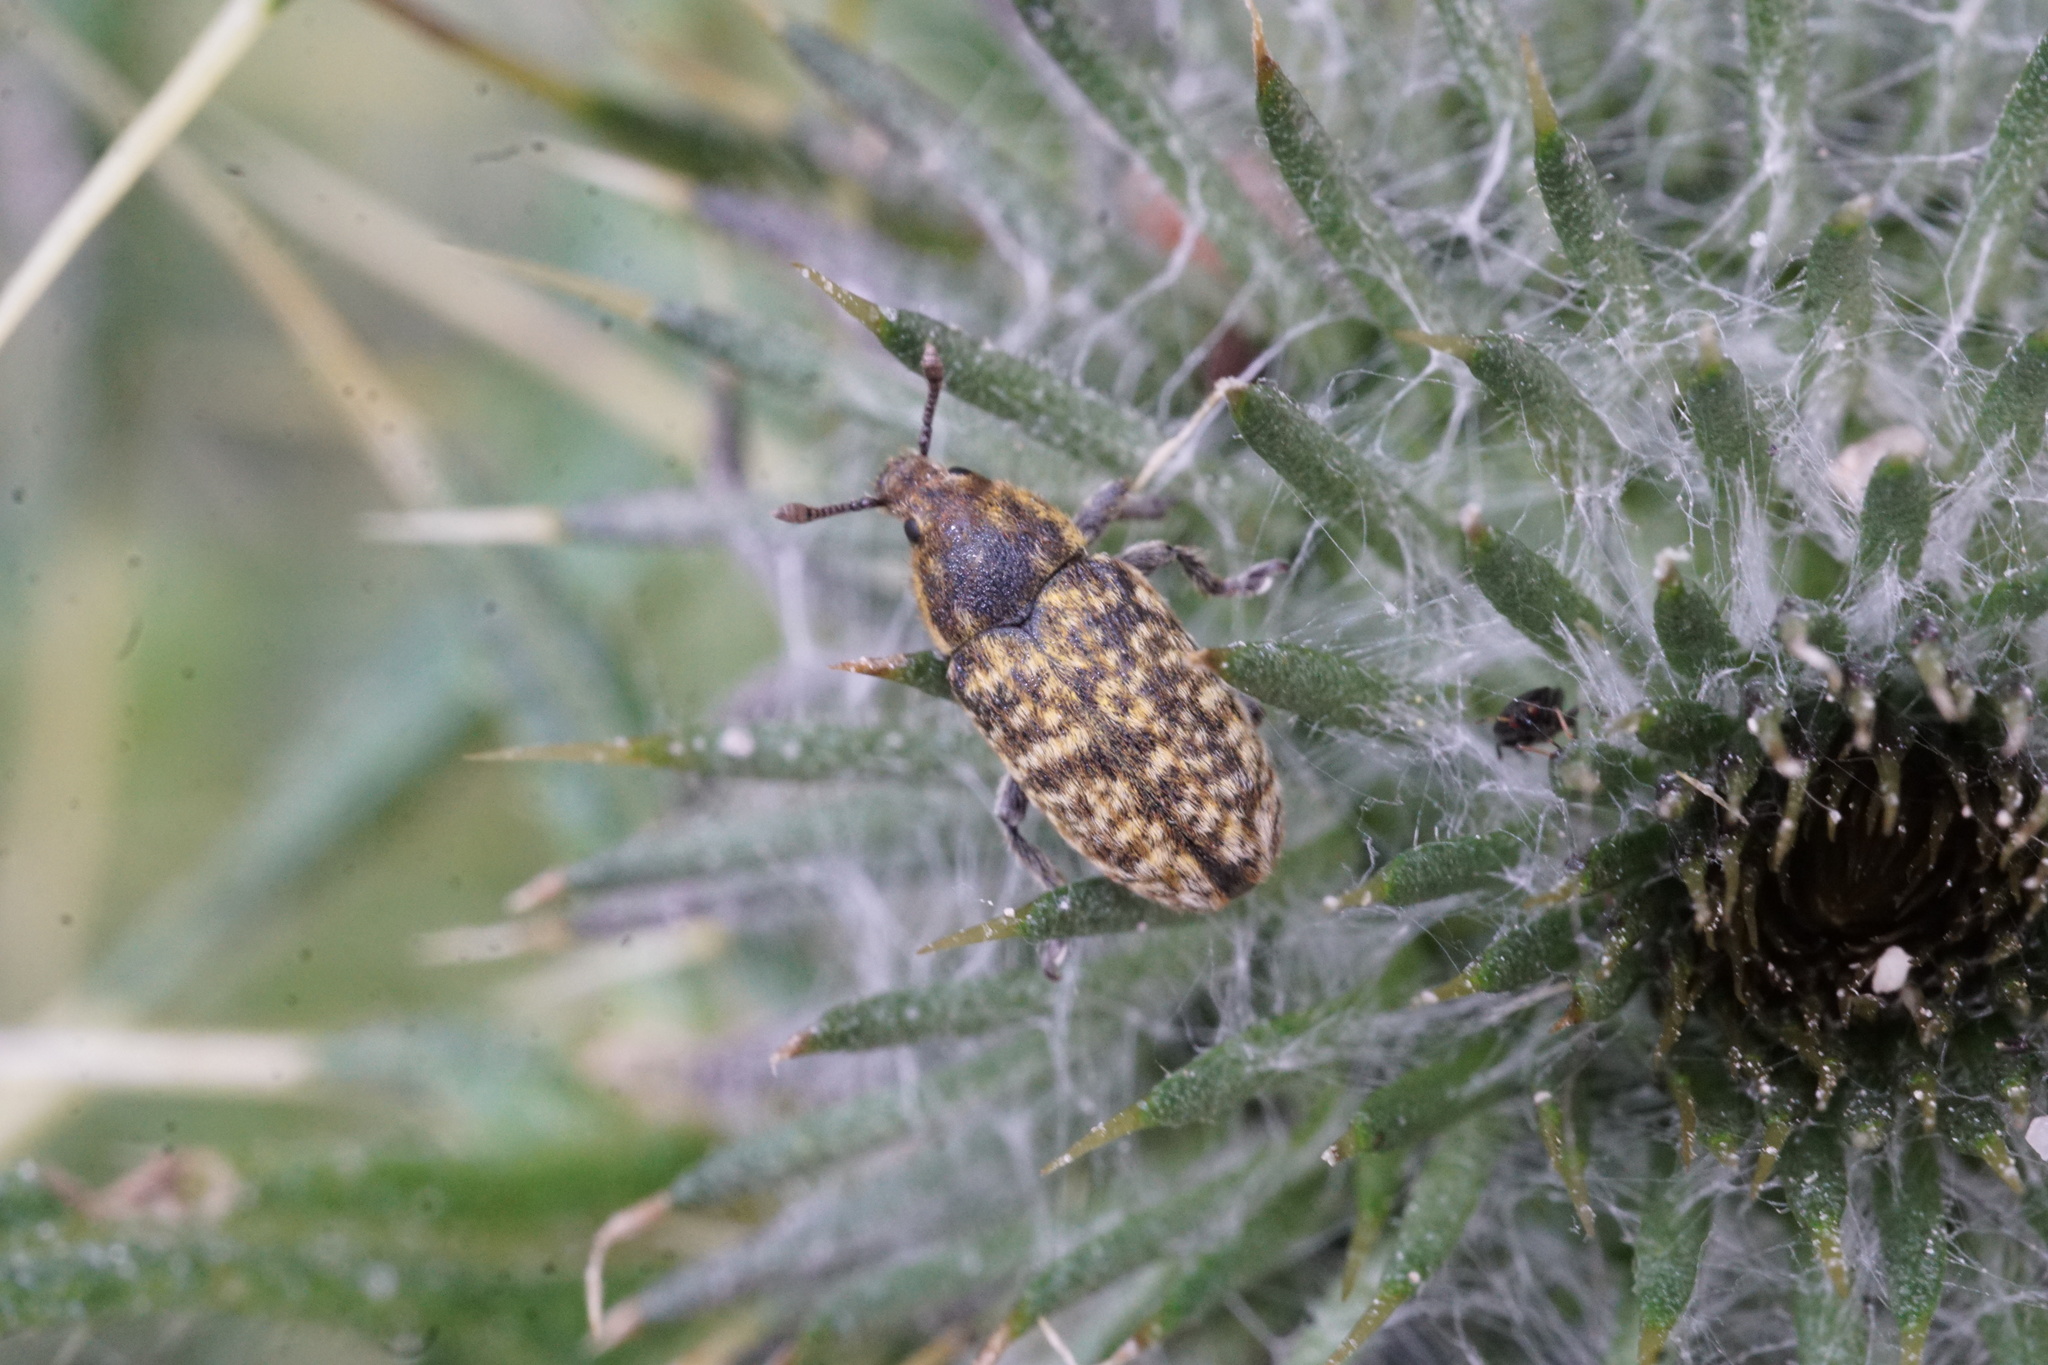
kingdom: Animalia
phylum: Arthropoda
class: Insecta
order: Coleoptera
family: Curculionidae
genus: Rhinocyllus
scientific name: Rhinocyllus conicus
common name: Weevil
